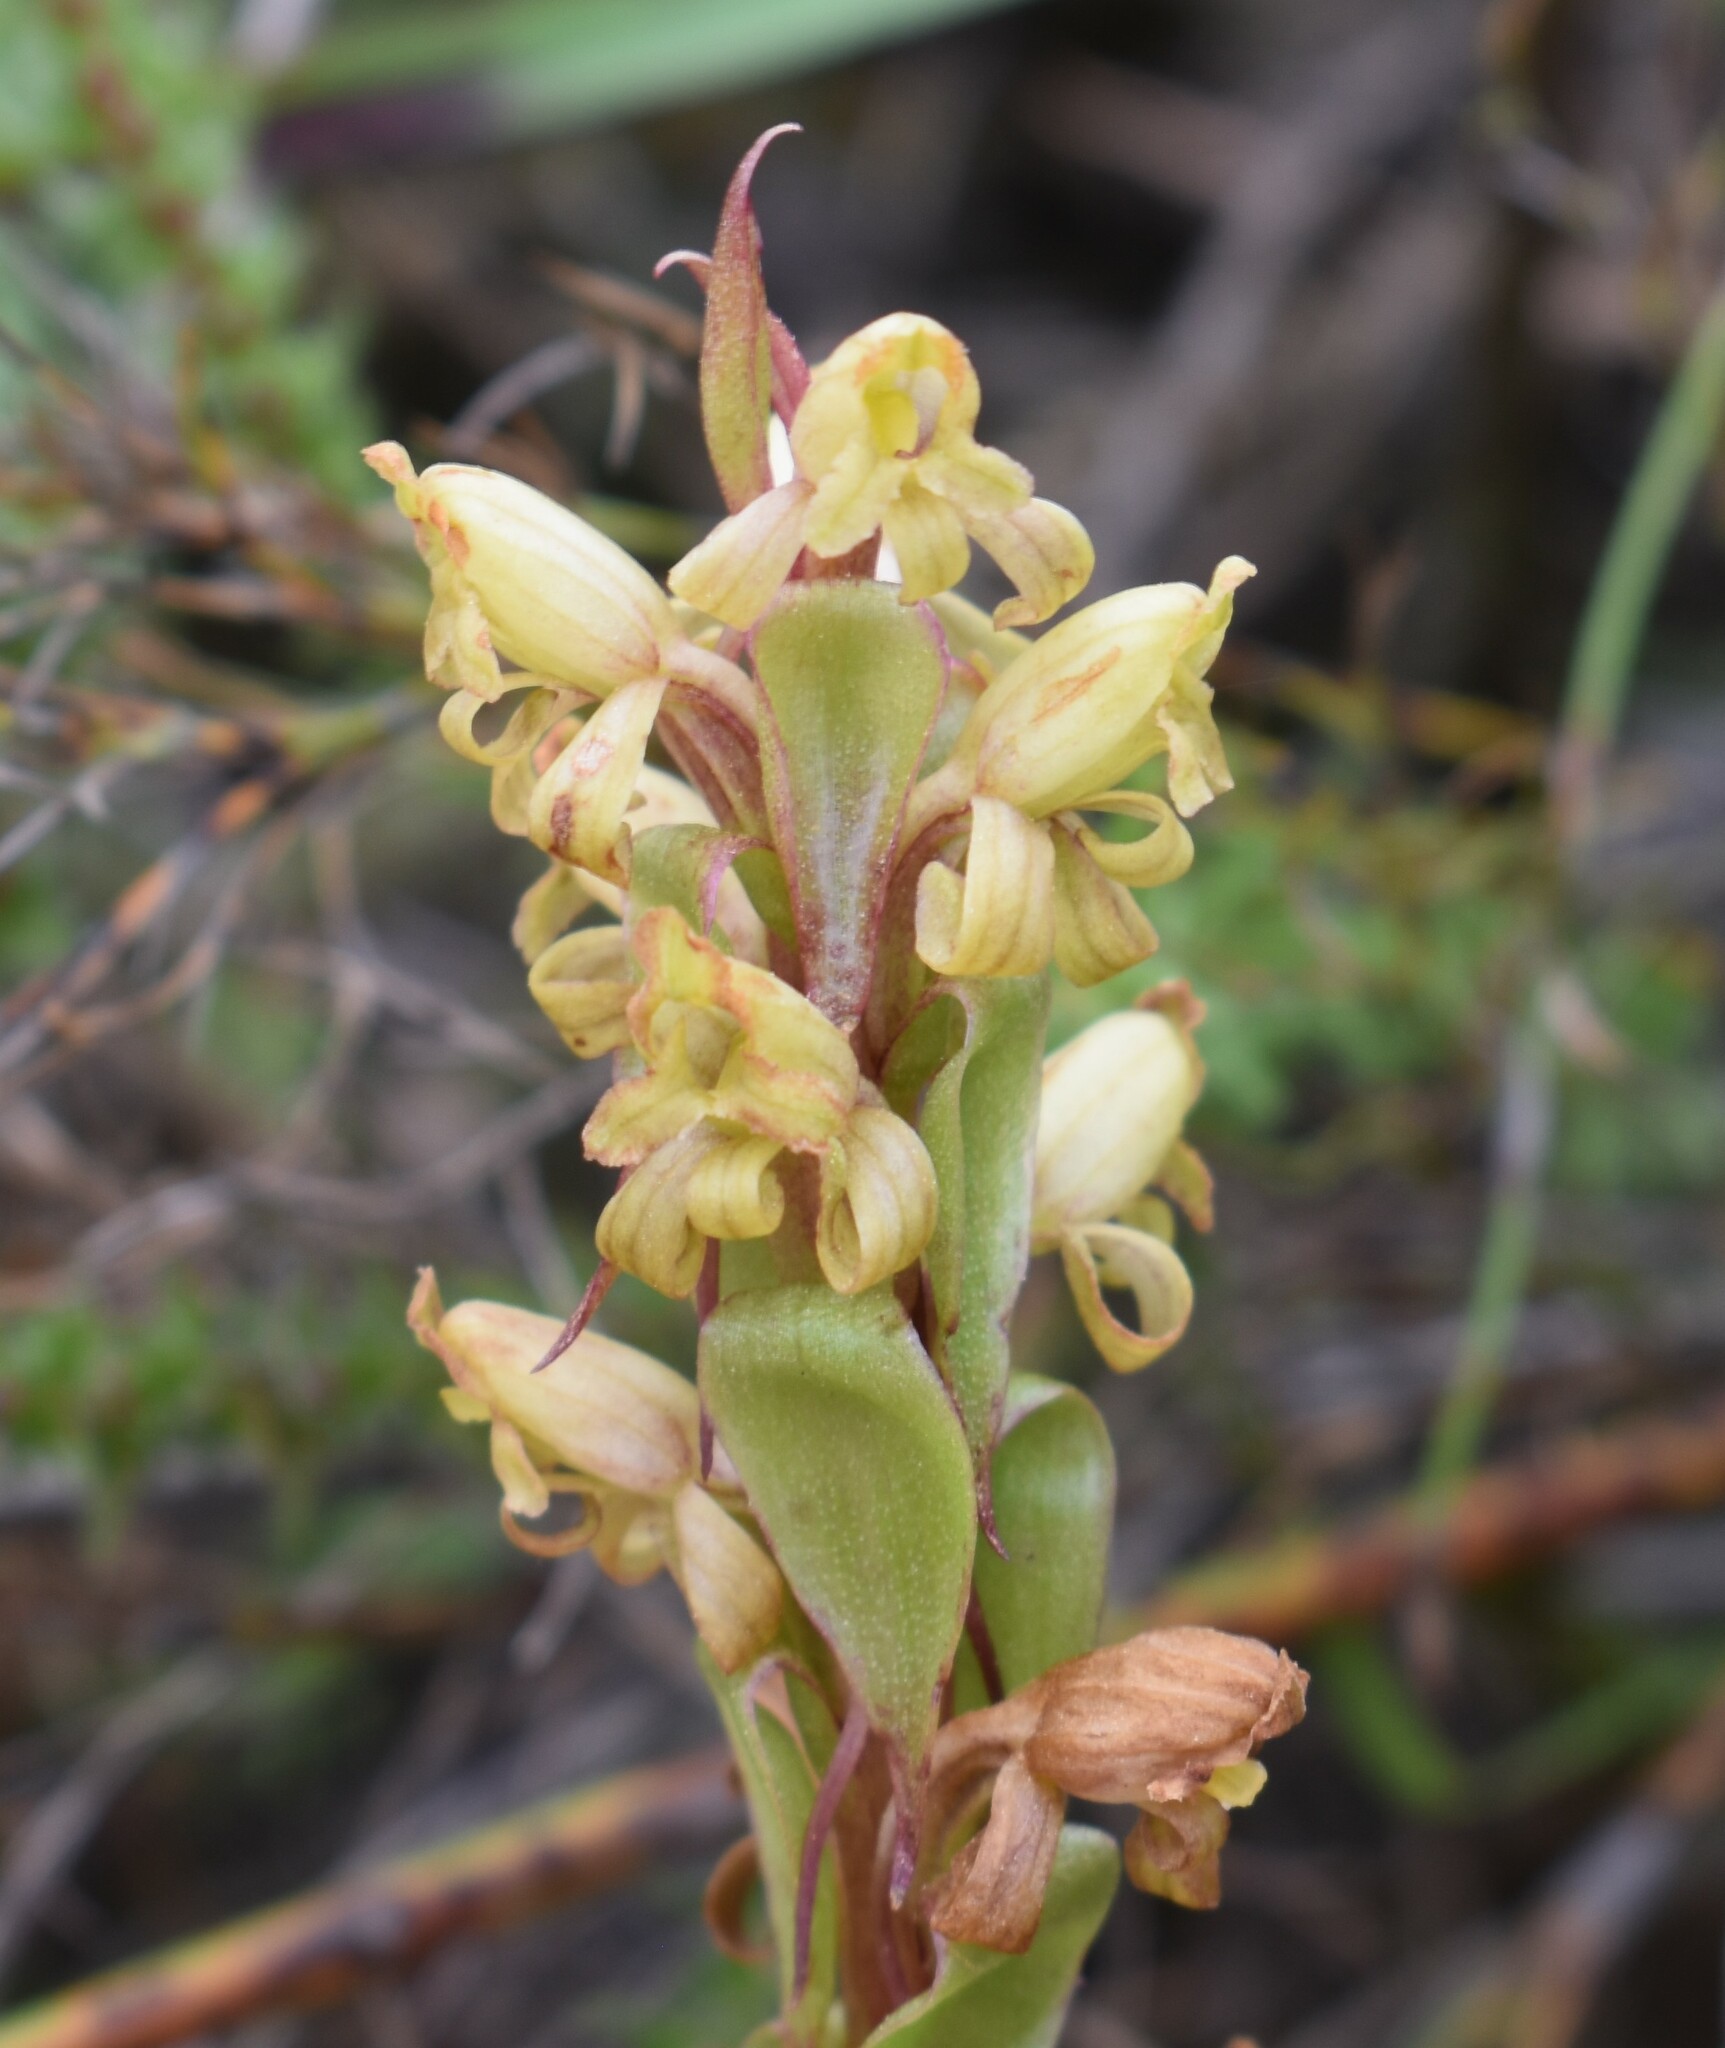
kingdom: Plantae
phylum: Tracheophyta
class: Liliopsida
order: Asparagales
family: Orchidaceae
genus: Satyrium
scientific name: Satyrium lupulinum
